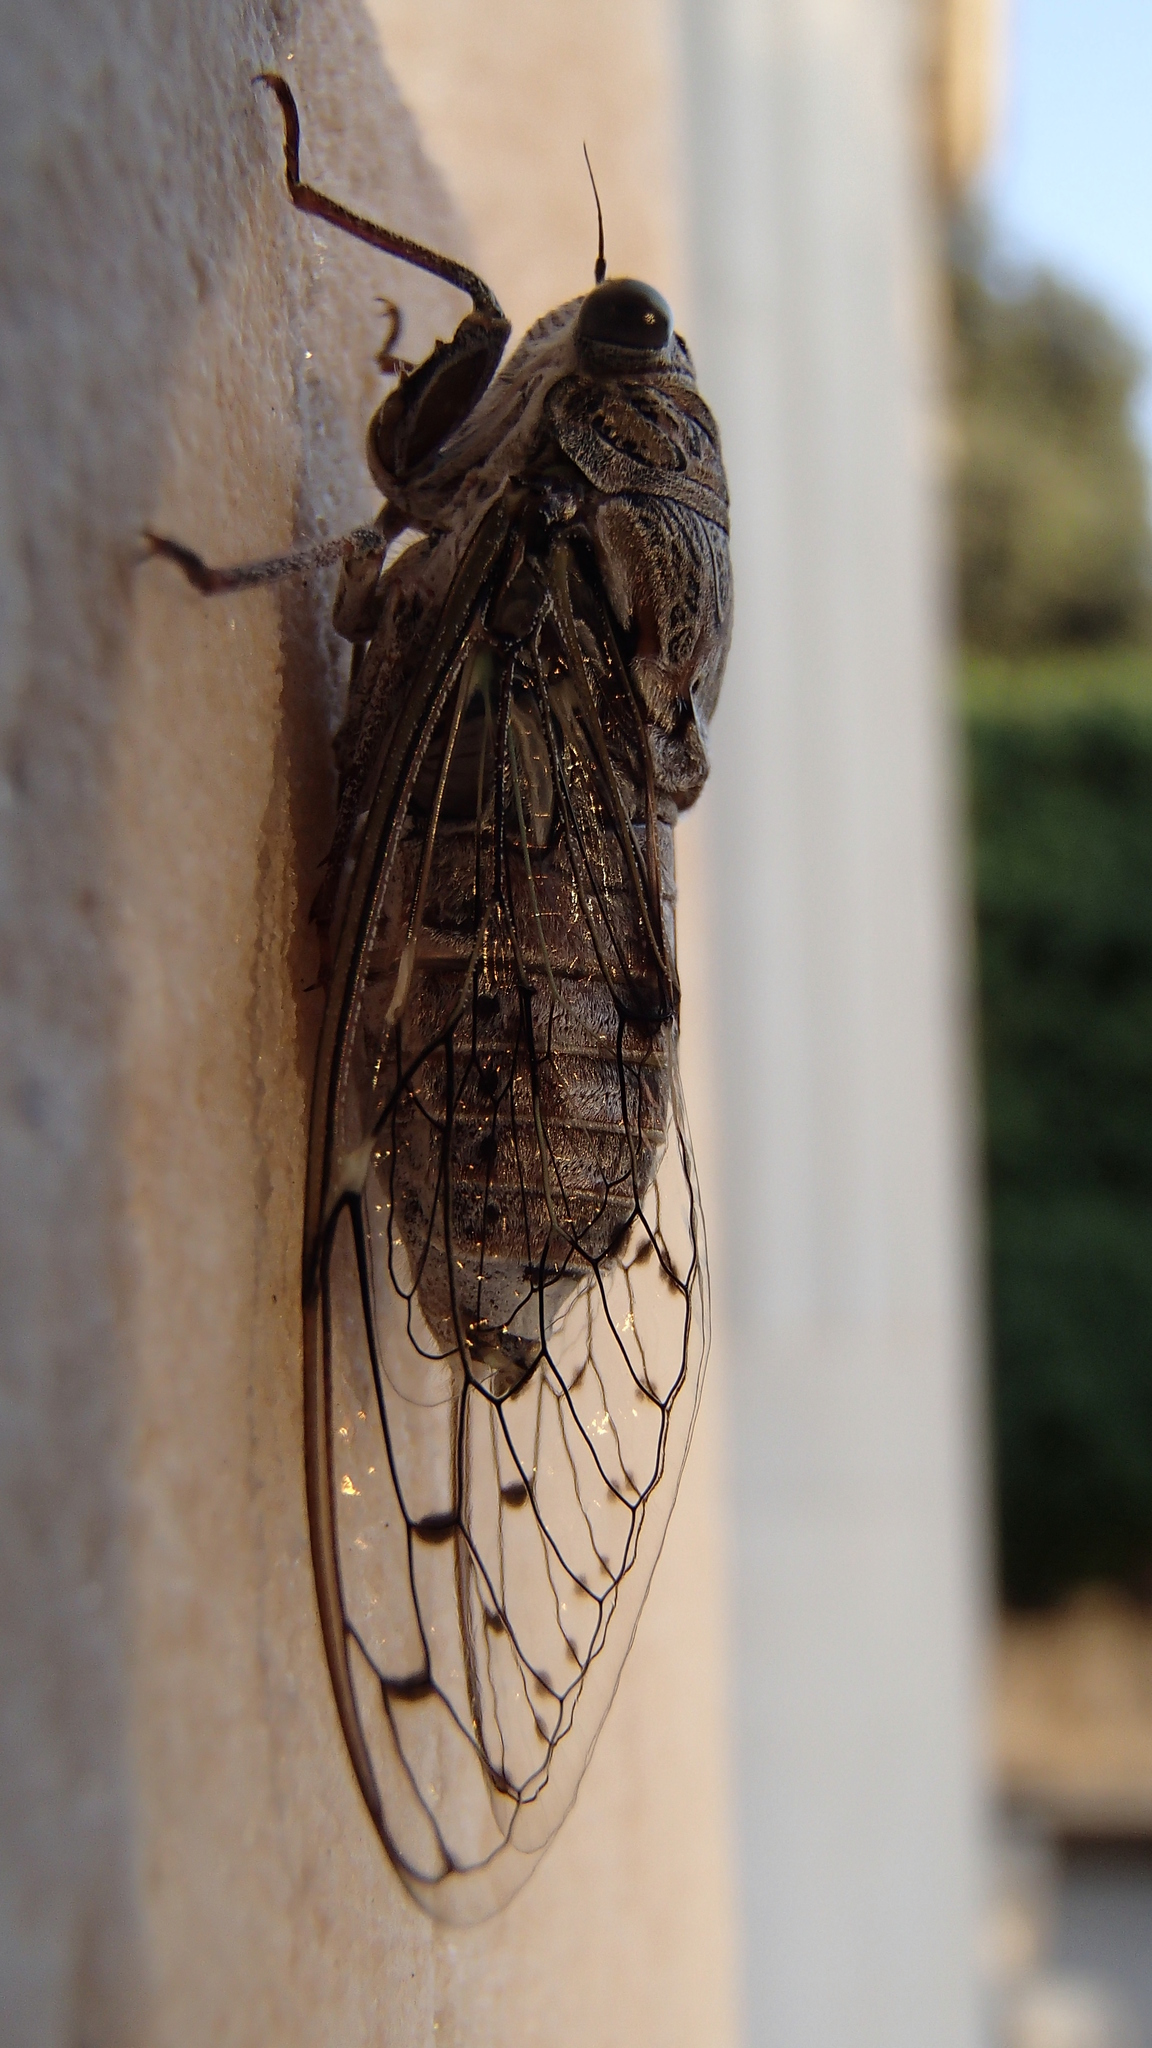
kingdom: Animalia
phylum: Arthropoda
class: Insecta
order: Hemiptera
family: Cicadidae
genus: Cicada
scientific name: Cicada orni
